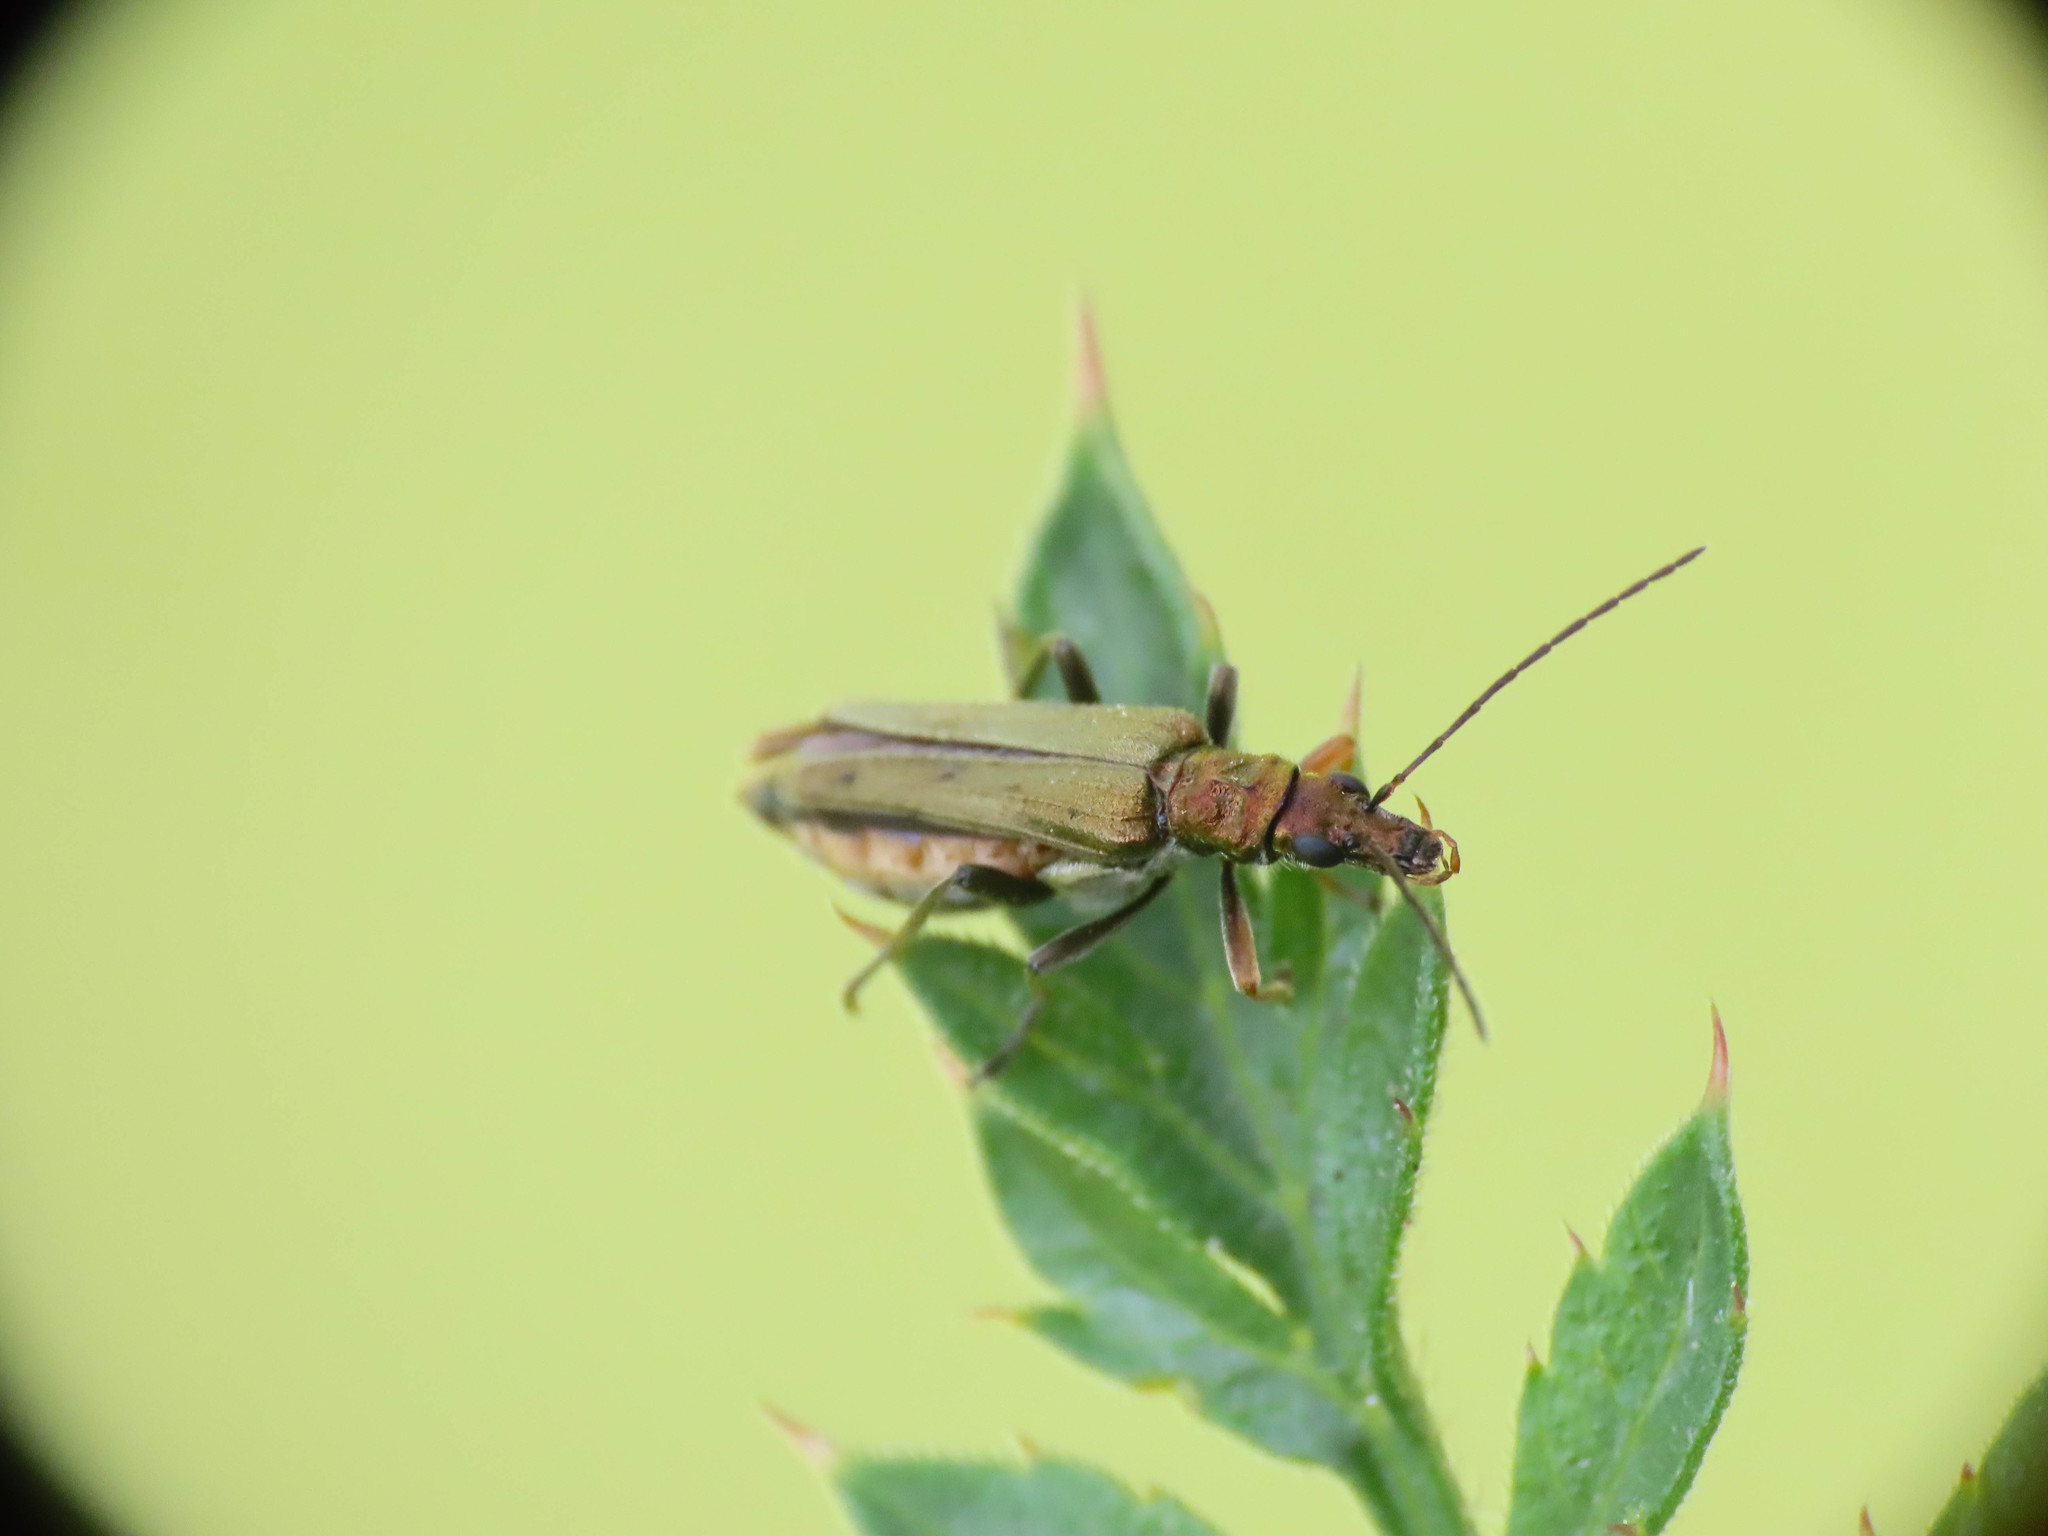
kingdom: Animalia
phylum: Arthropoda
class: Insecta
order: Coleoptera
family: Oedemeridae
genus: Oedemera
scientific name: Oedemera flavipes
